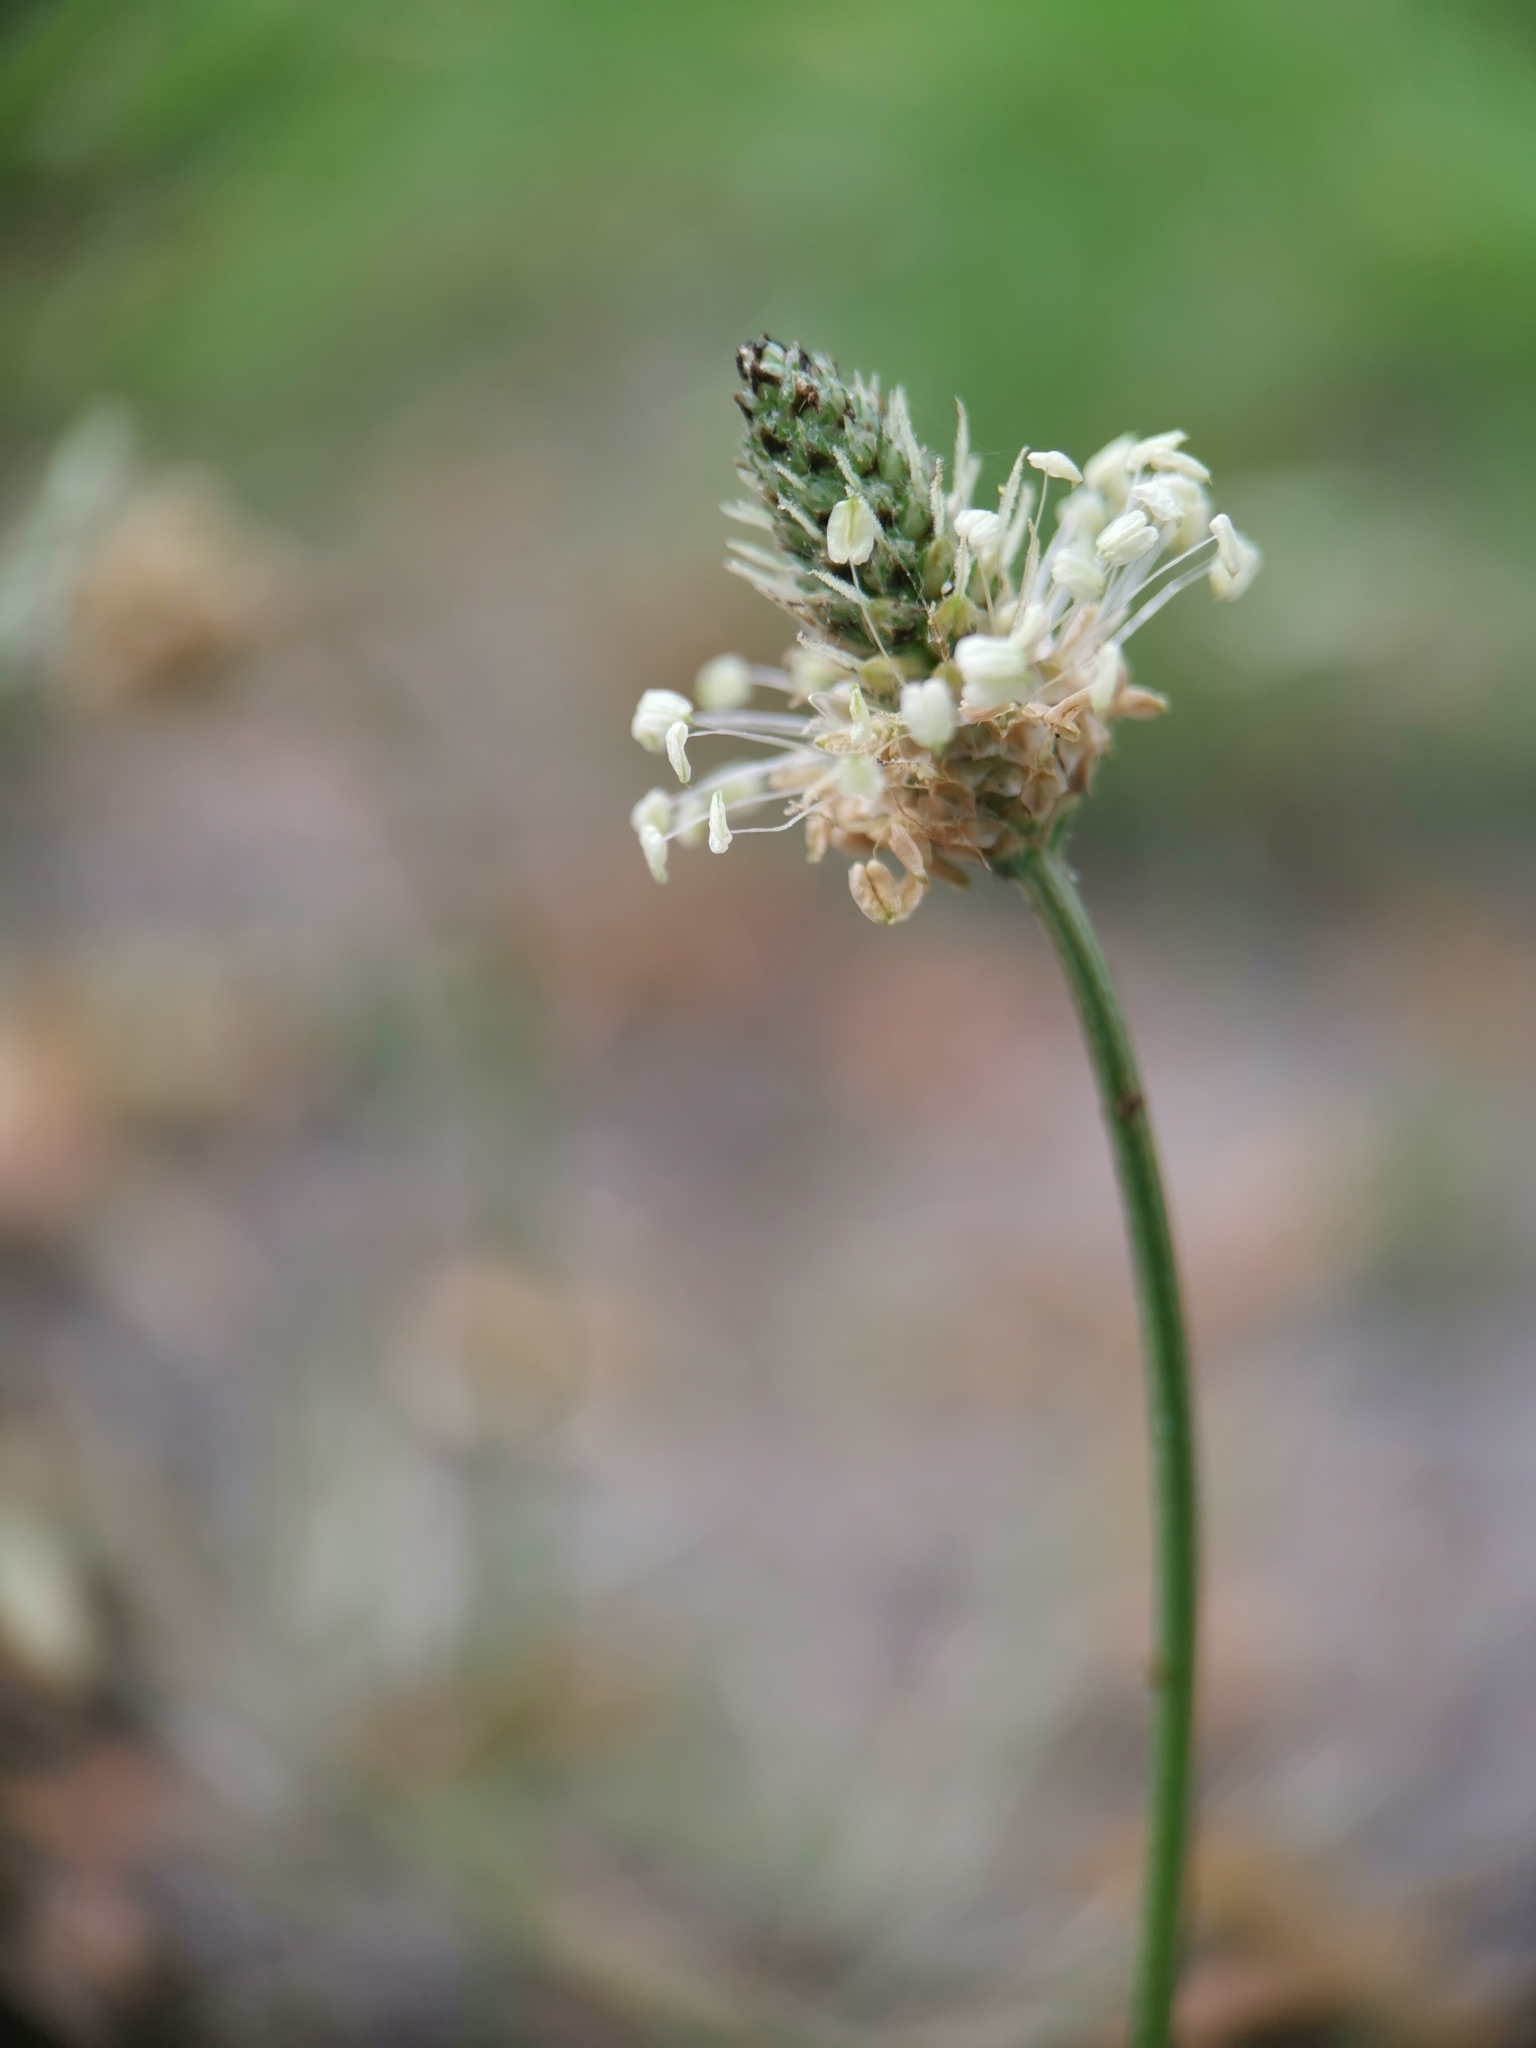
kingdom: Plantae
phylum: Tracheophyta
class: Magnoliopsida
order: Lamiales
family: Plantaginaceae
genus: Plantago
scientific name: Plantago lanceolata
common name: Ribwort plantain
